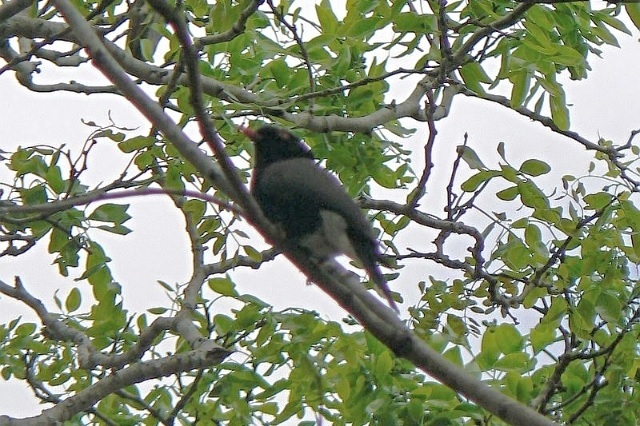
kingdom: Animalia
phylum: Chordata
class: Aves
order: Passeriformes
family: Prionopidae
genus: Prionops
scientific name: Prionops retzii
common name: Retz's helmetshrike
